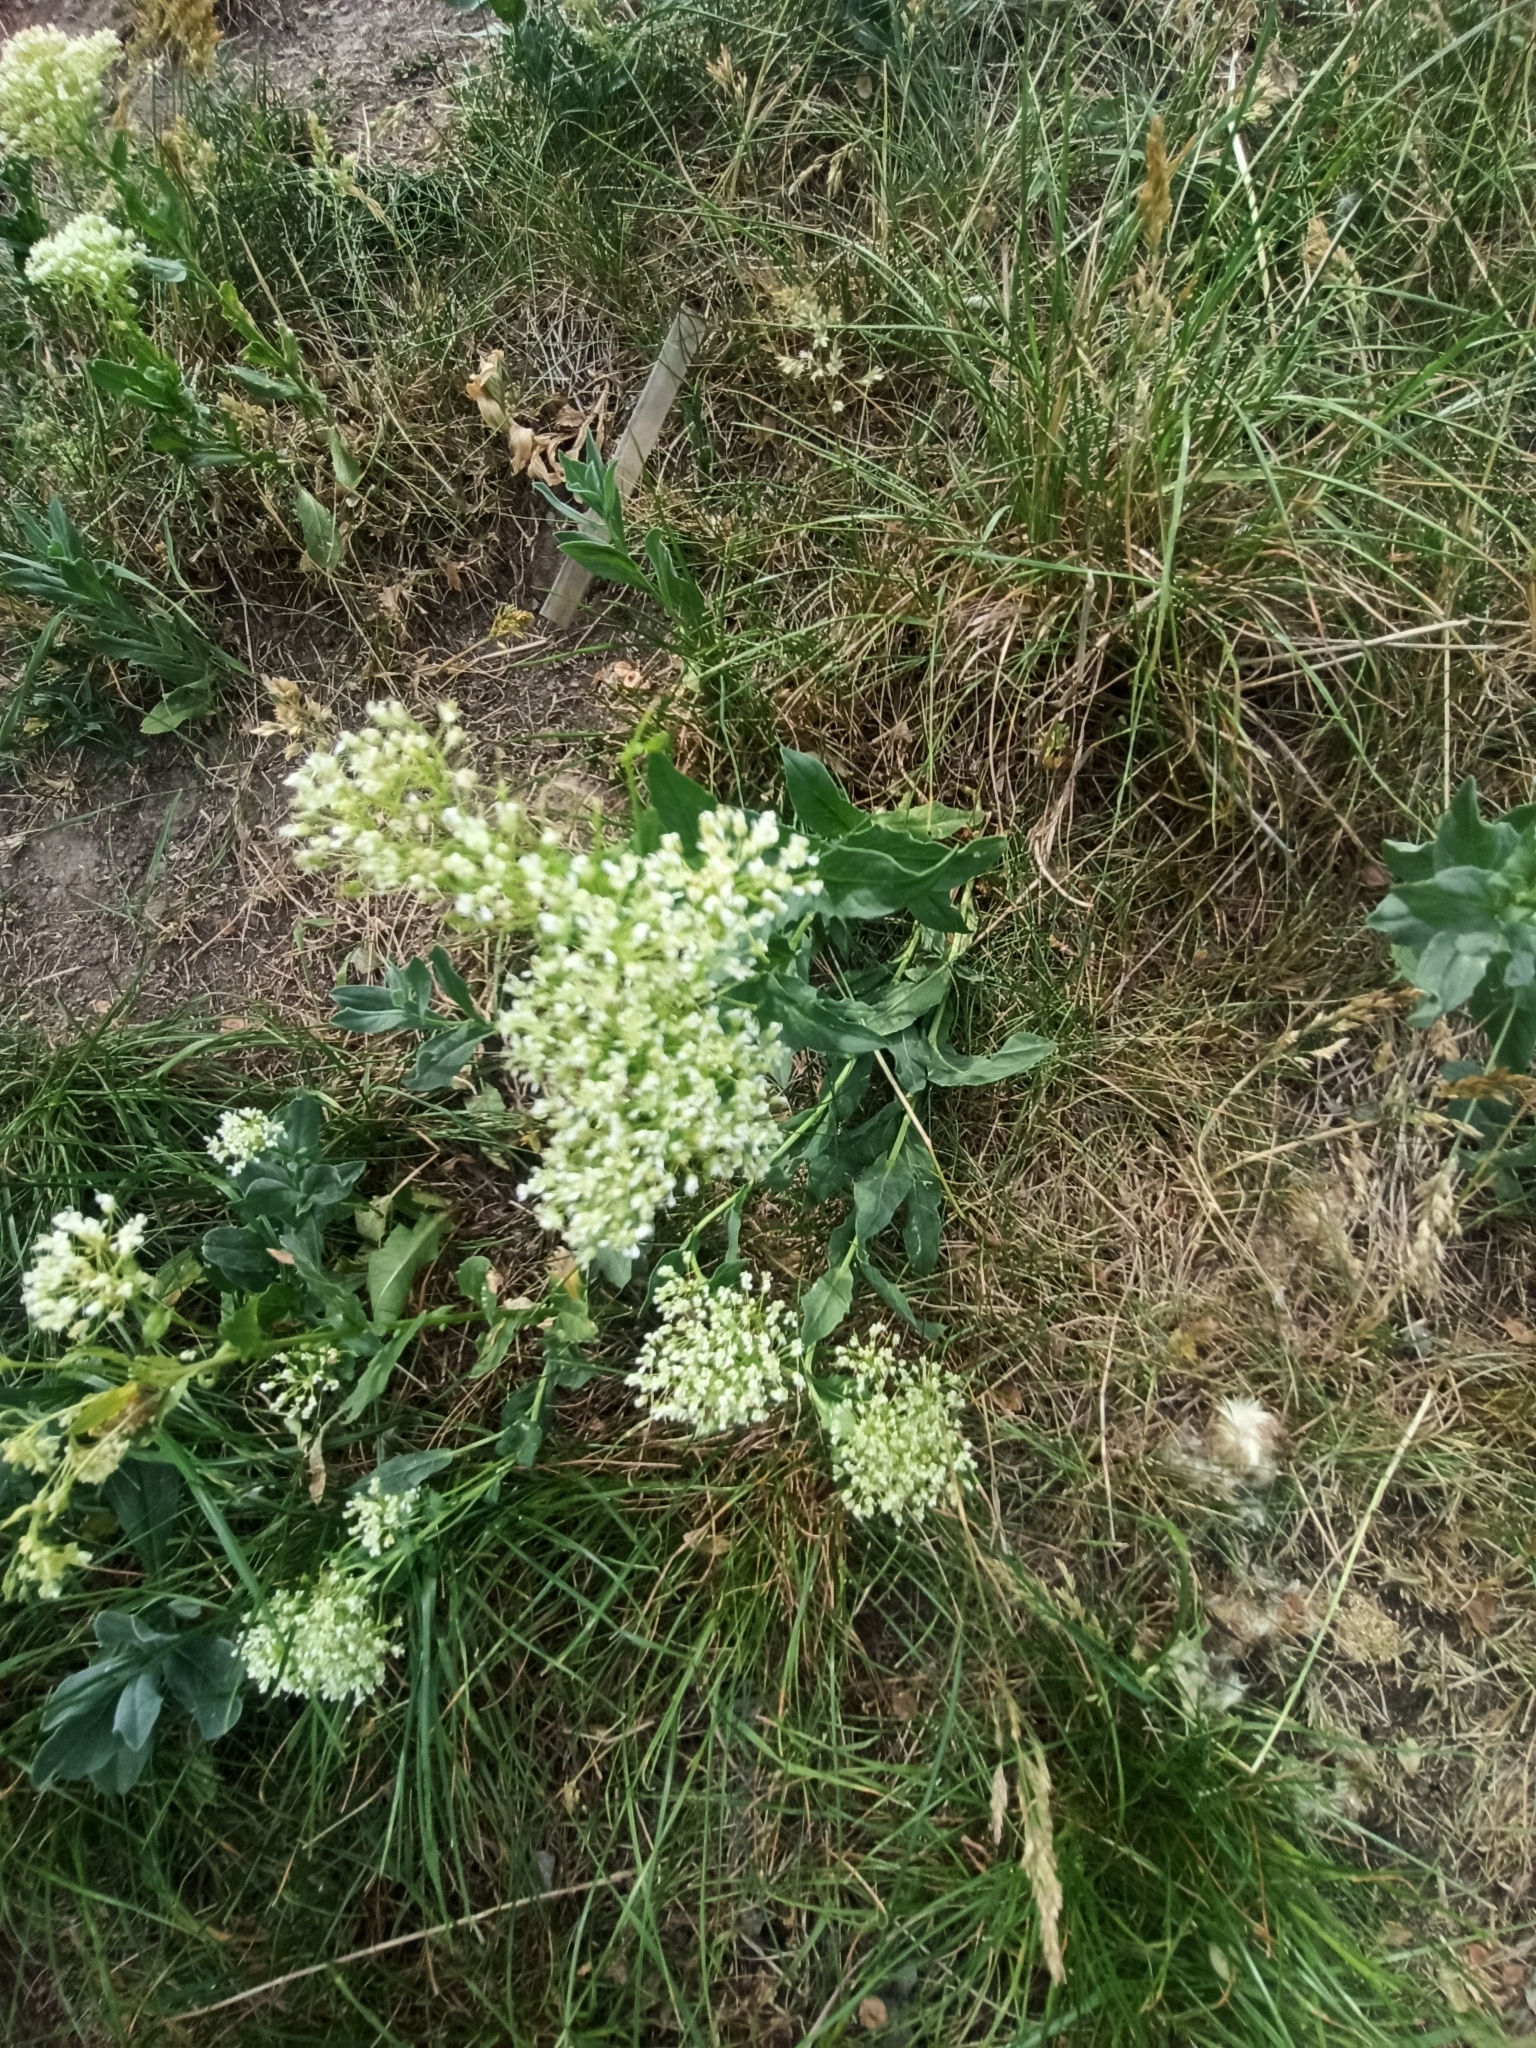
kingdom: Plantae
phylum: Tracheophyta
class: Magnoliopsida
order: Brassicales
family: Brassicaceae
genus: Lepidium
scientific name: Lepidium draba
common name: Hoary cress
